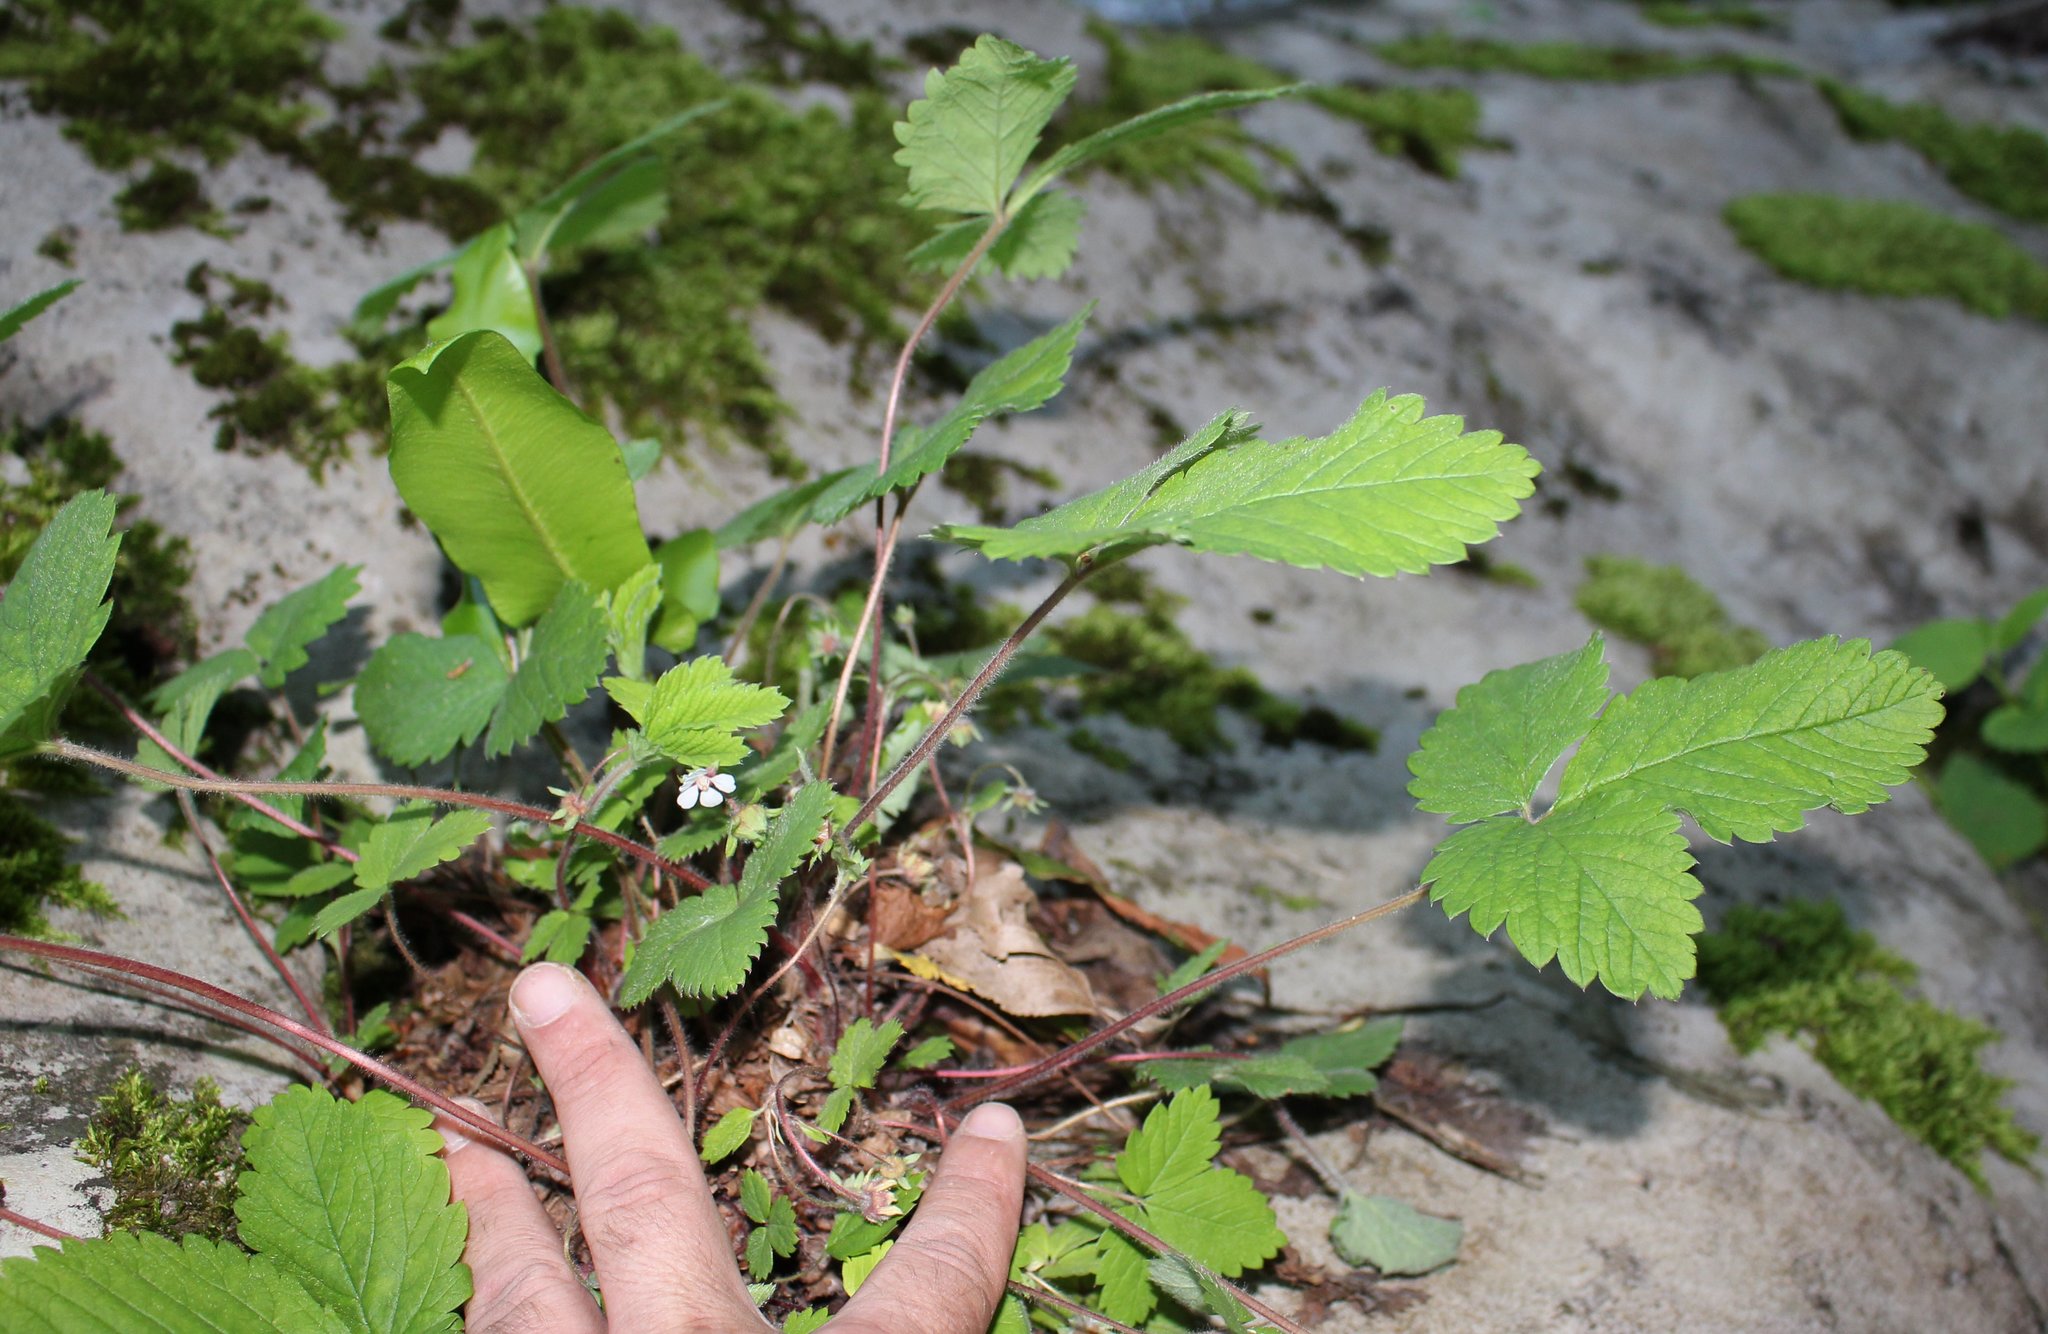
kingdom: Plantae
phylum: Tracheophyta
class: Magnoliopsida
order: Rosales
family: Rosaceae
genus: Potentilla
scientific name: Potentilla micrantha
